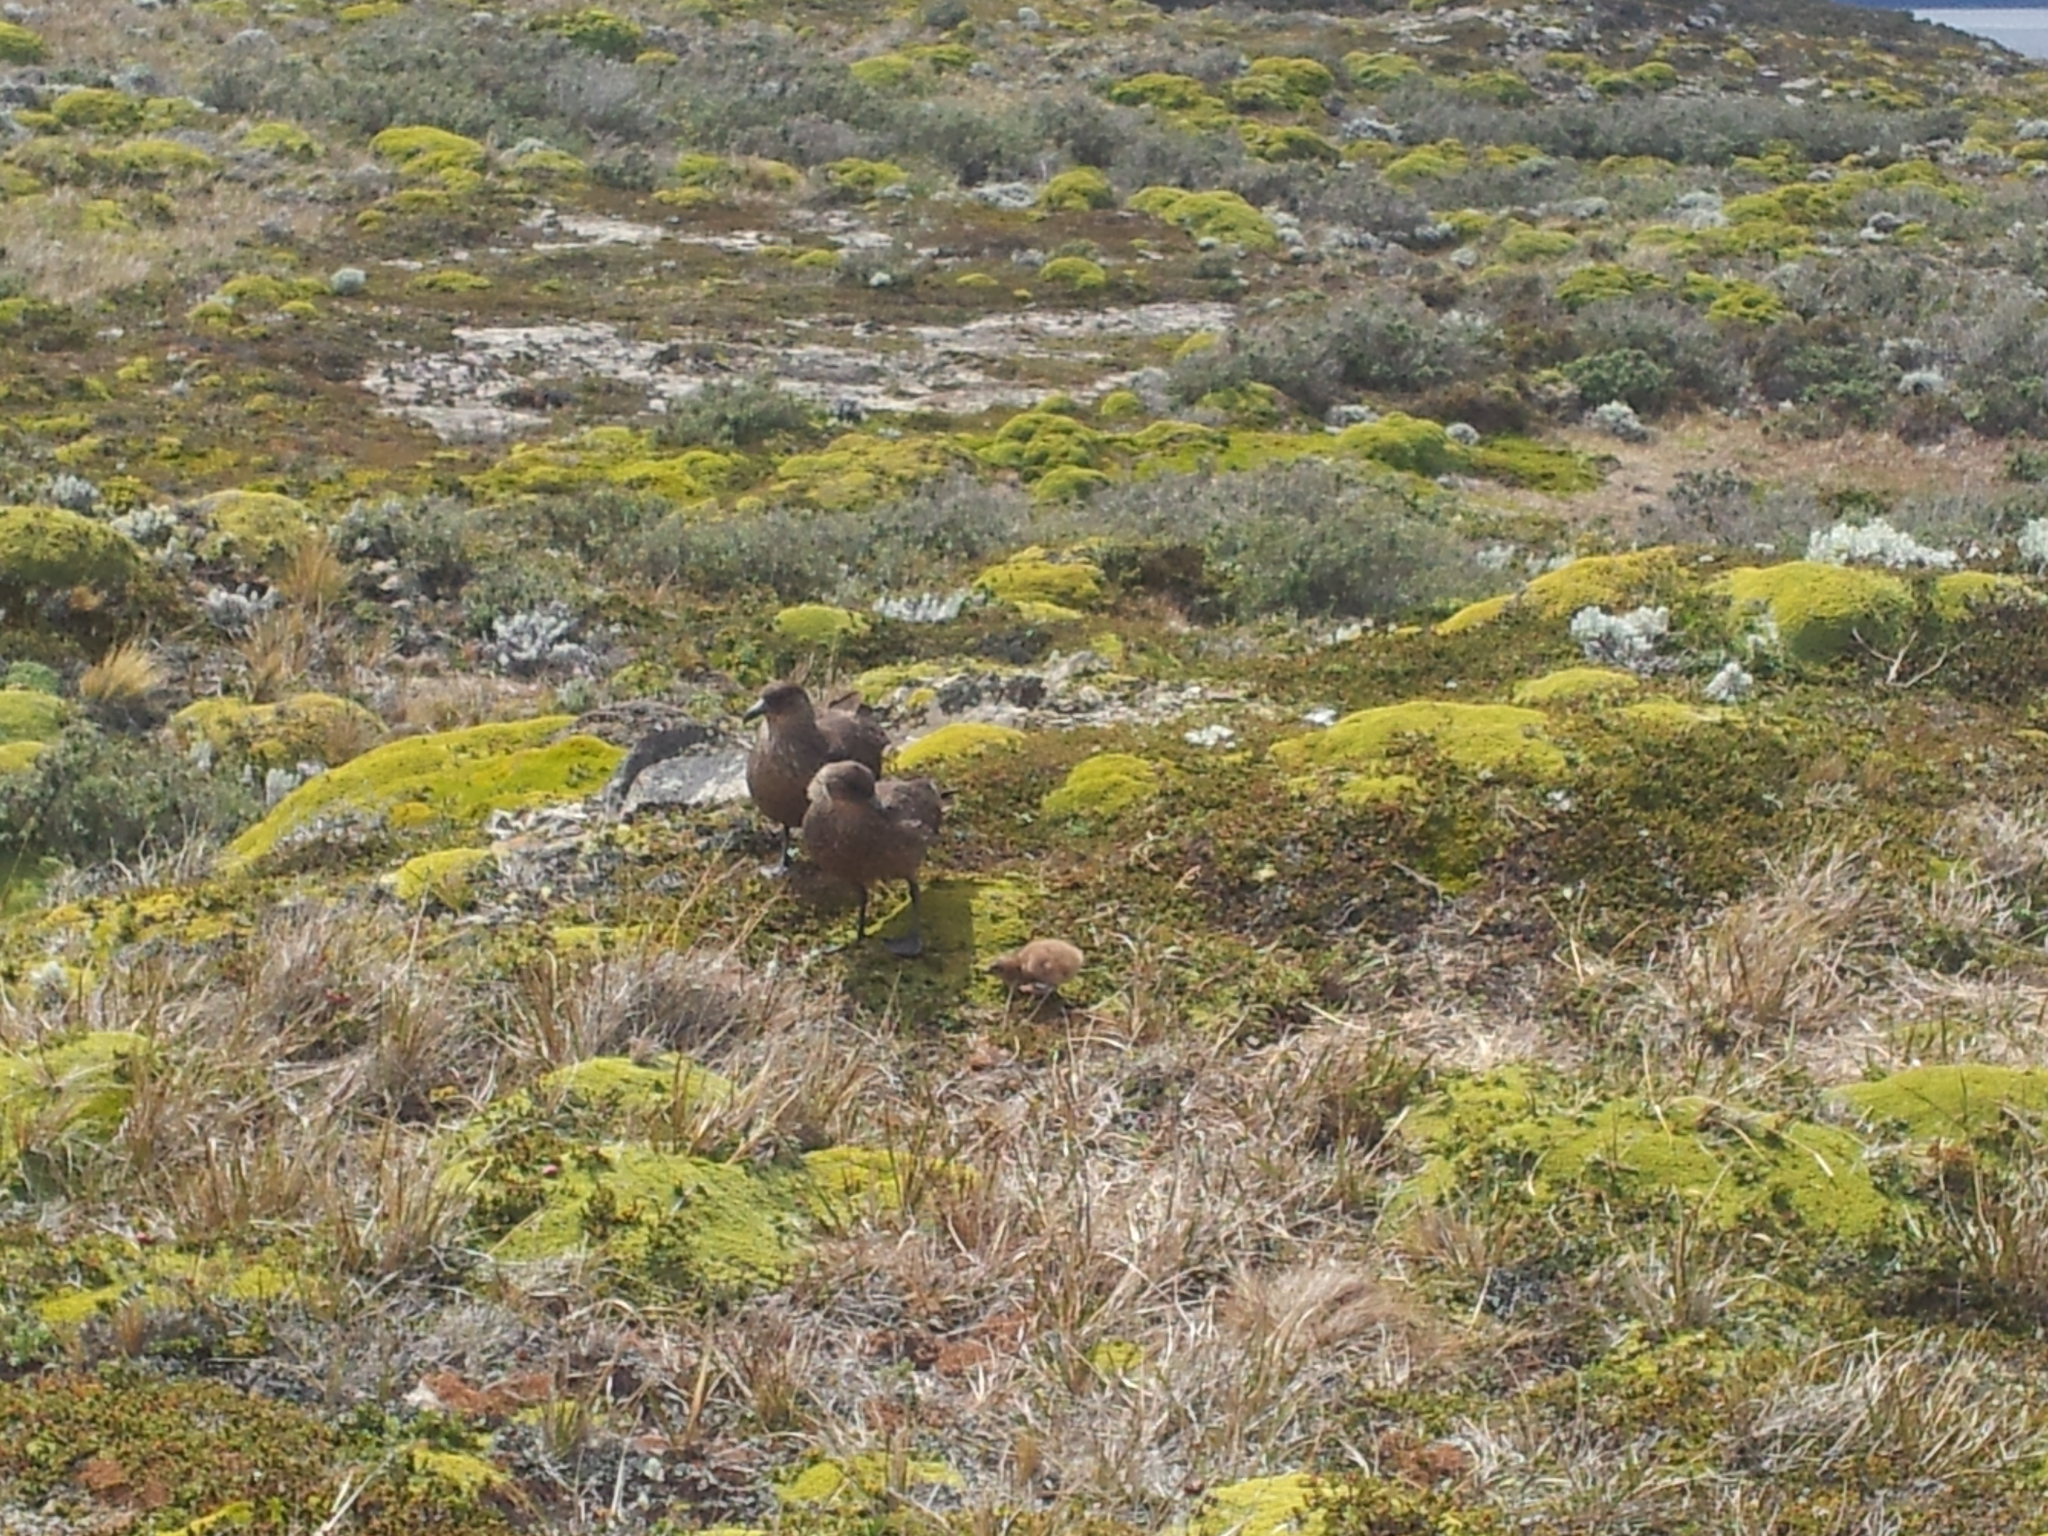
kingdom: Animalia
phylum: Chordata
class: Aves
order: Charadriiformes
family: Stercorariidae
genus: Stercorarius
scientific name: Stercorarius chilensis
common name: Chilean skua
